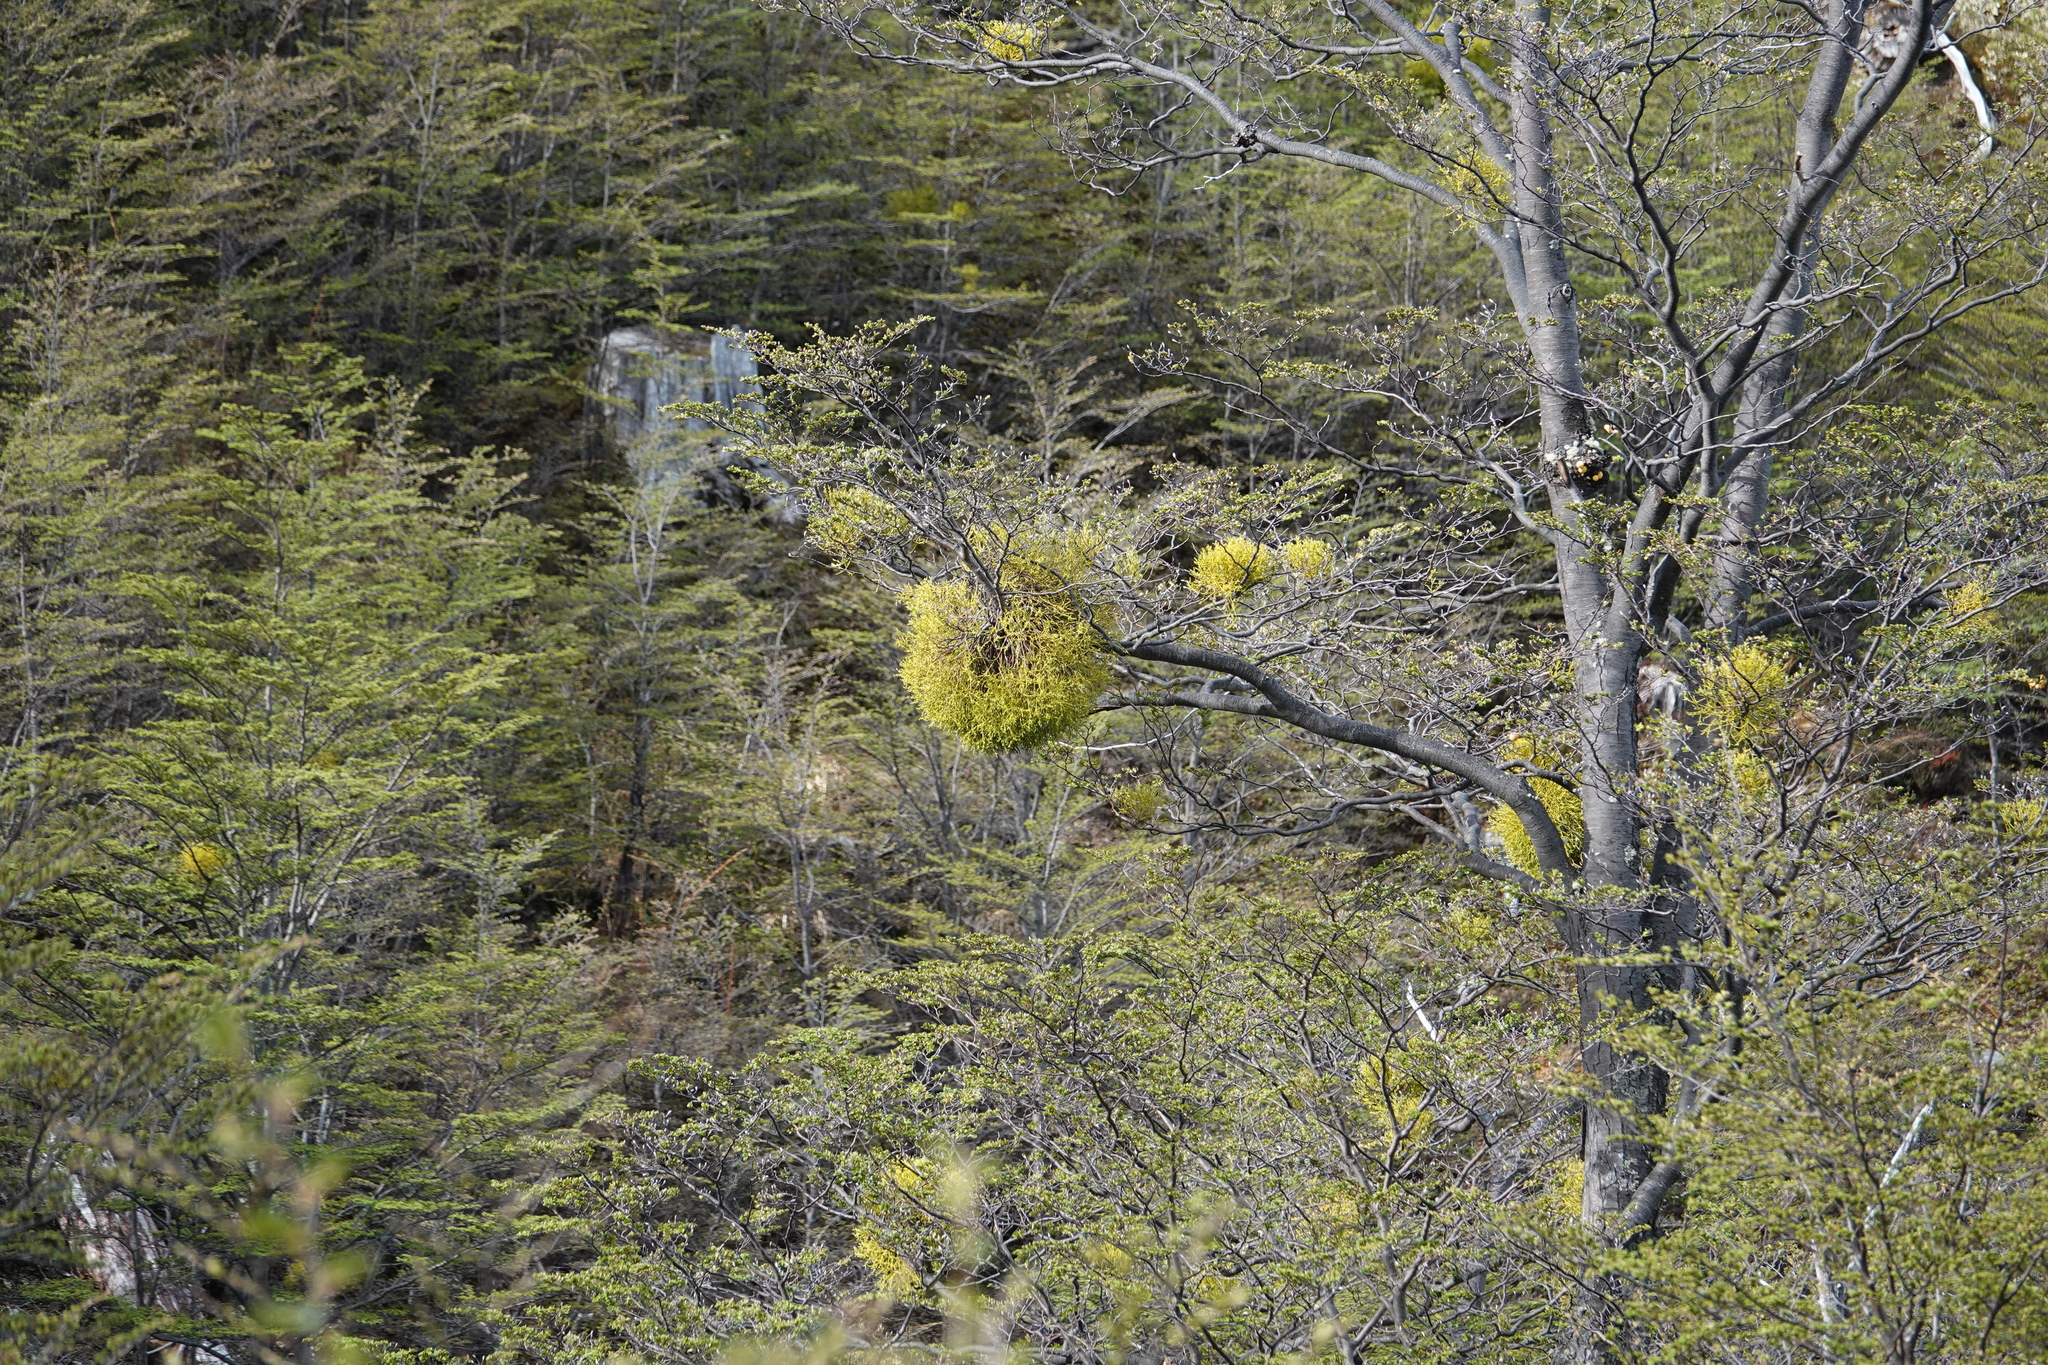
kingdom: Plantae
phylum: Tracheophyta
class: Magnoliopsida
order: Santalales
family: Misodendraceae
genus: Misodendrum
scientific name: Misodendrum punctulatum
